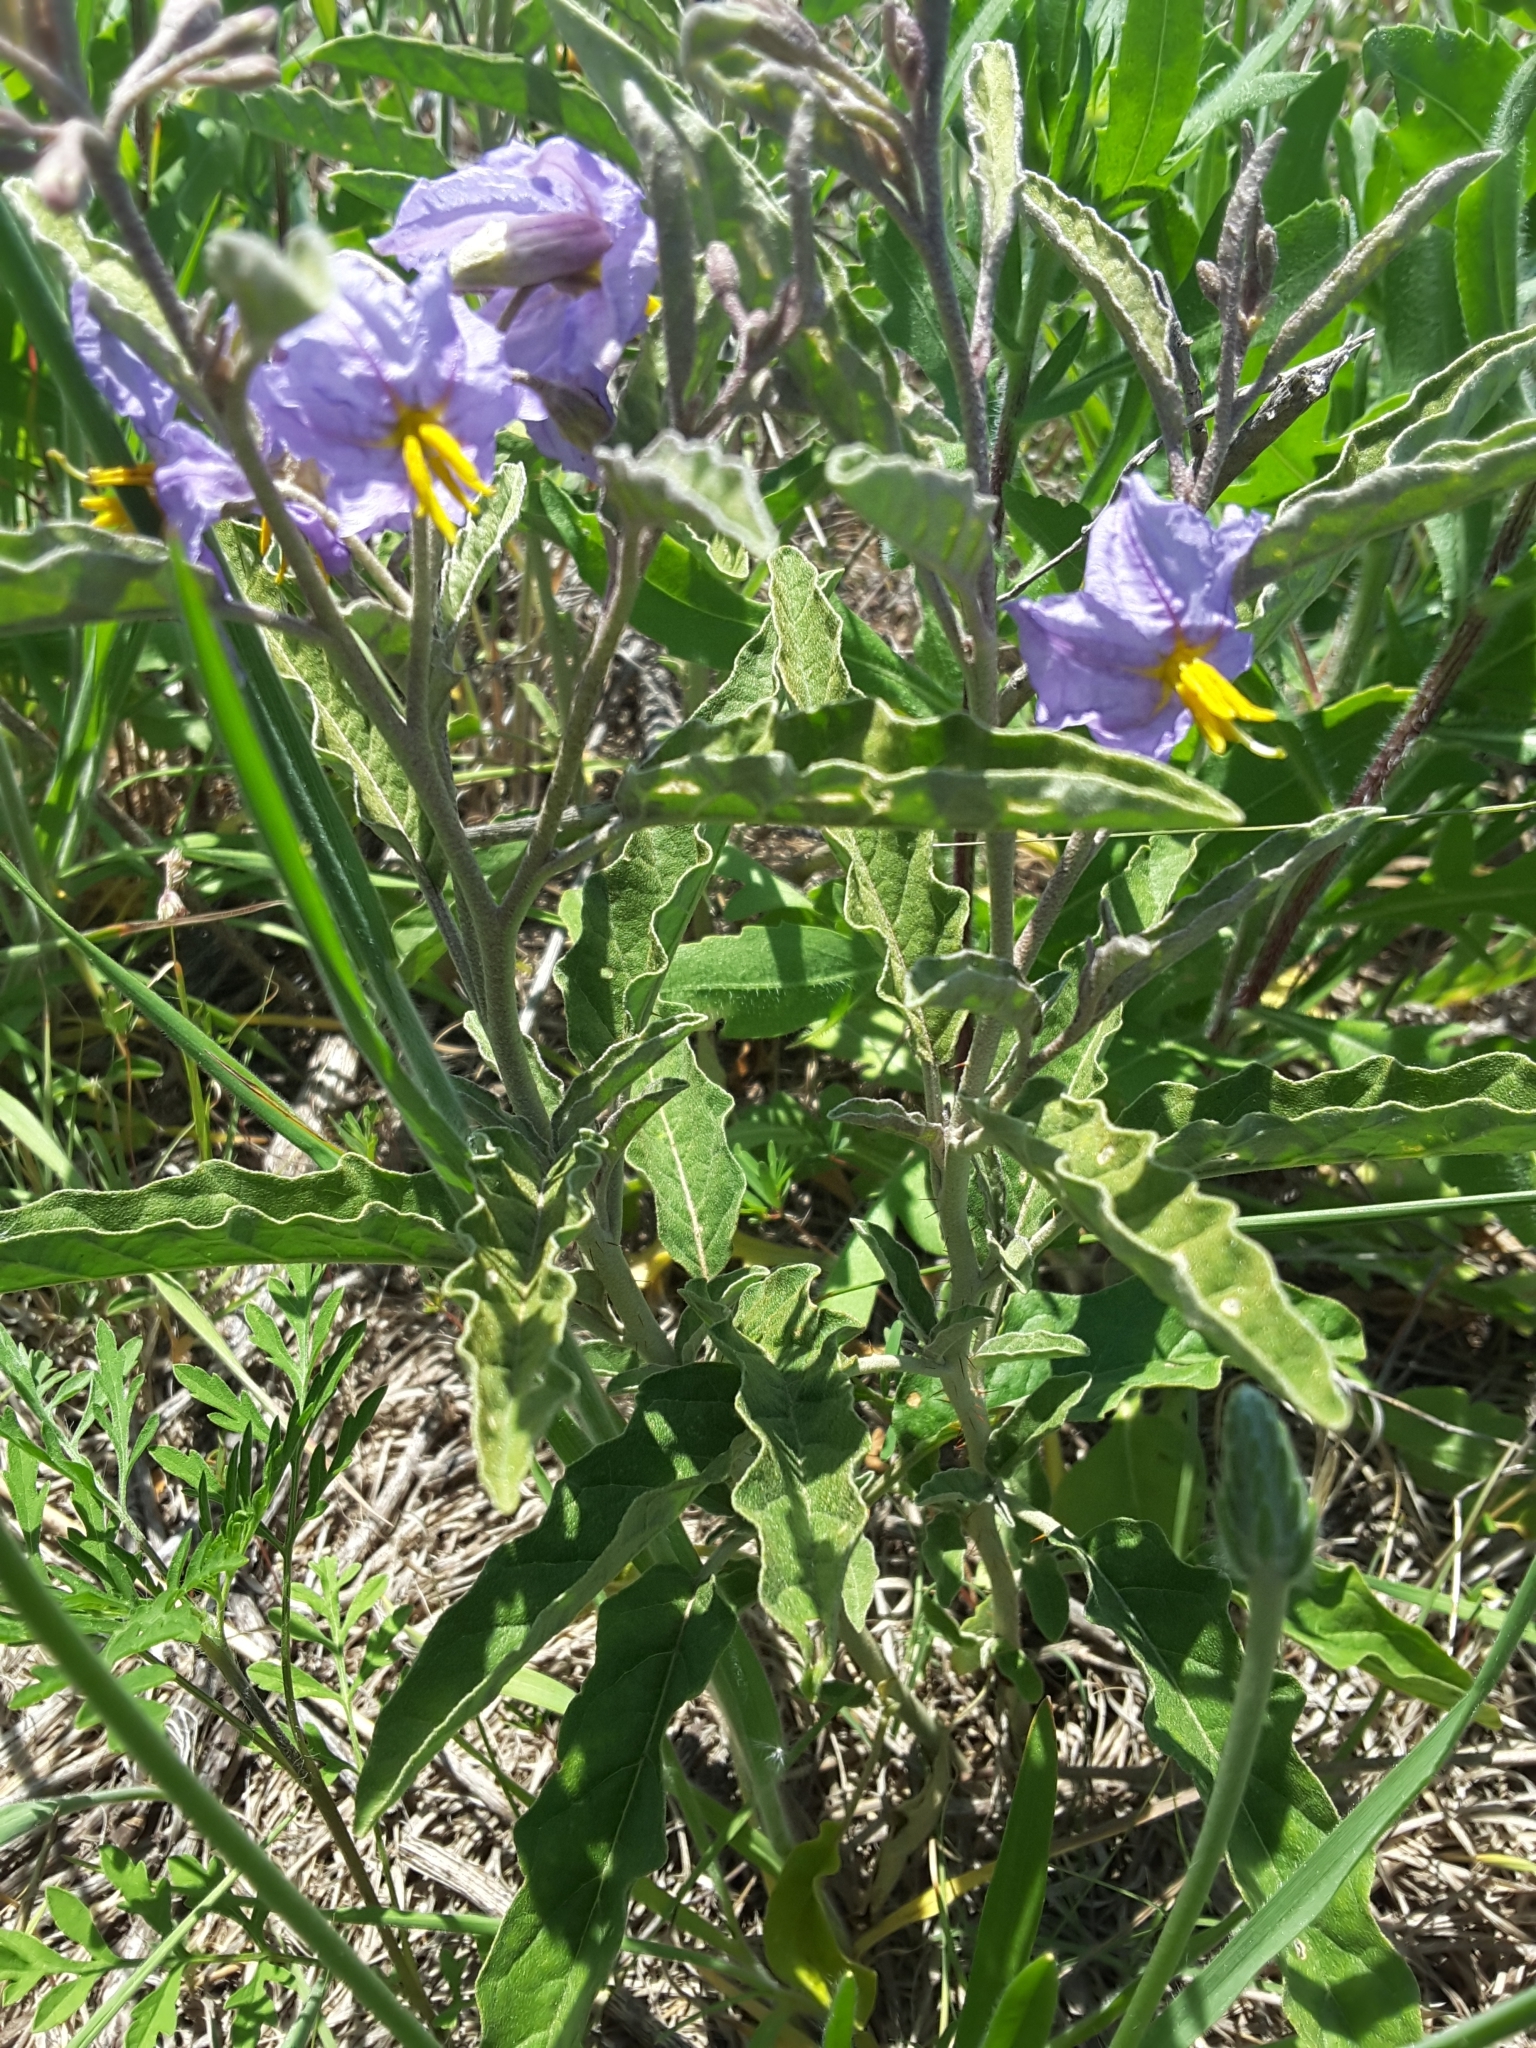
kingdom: Plantae
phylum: Tracheophyta
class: Magnoliopsida
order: Solanales
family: Solanaceae
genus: Solanum
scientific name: Solanum elaeagnifolium
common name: Silverleaf nightshade
